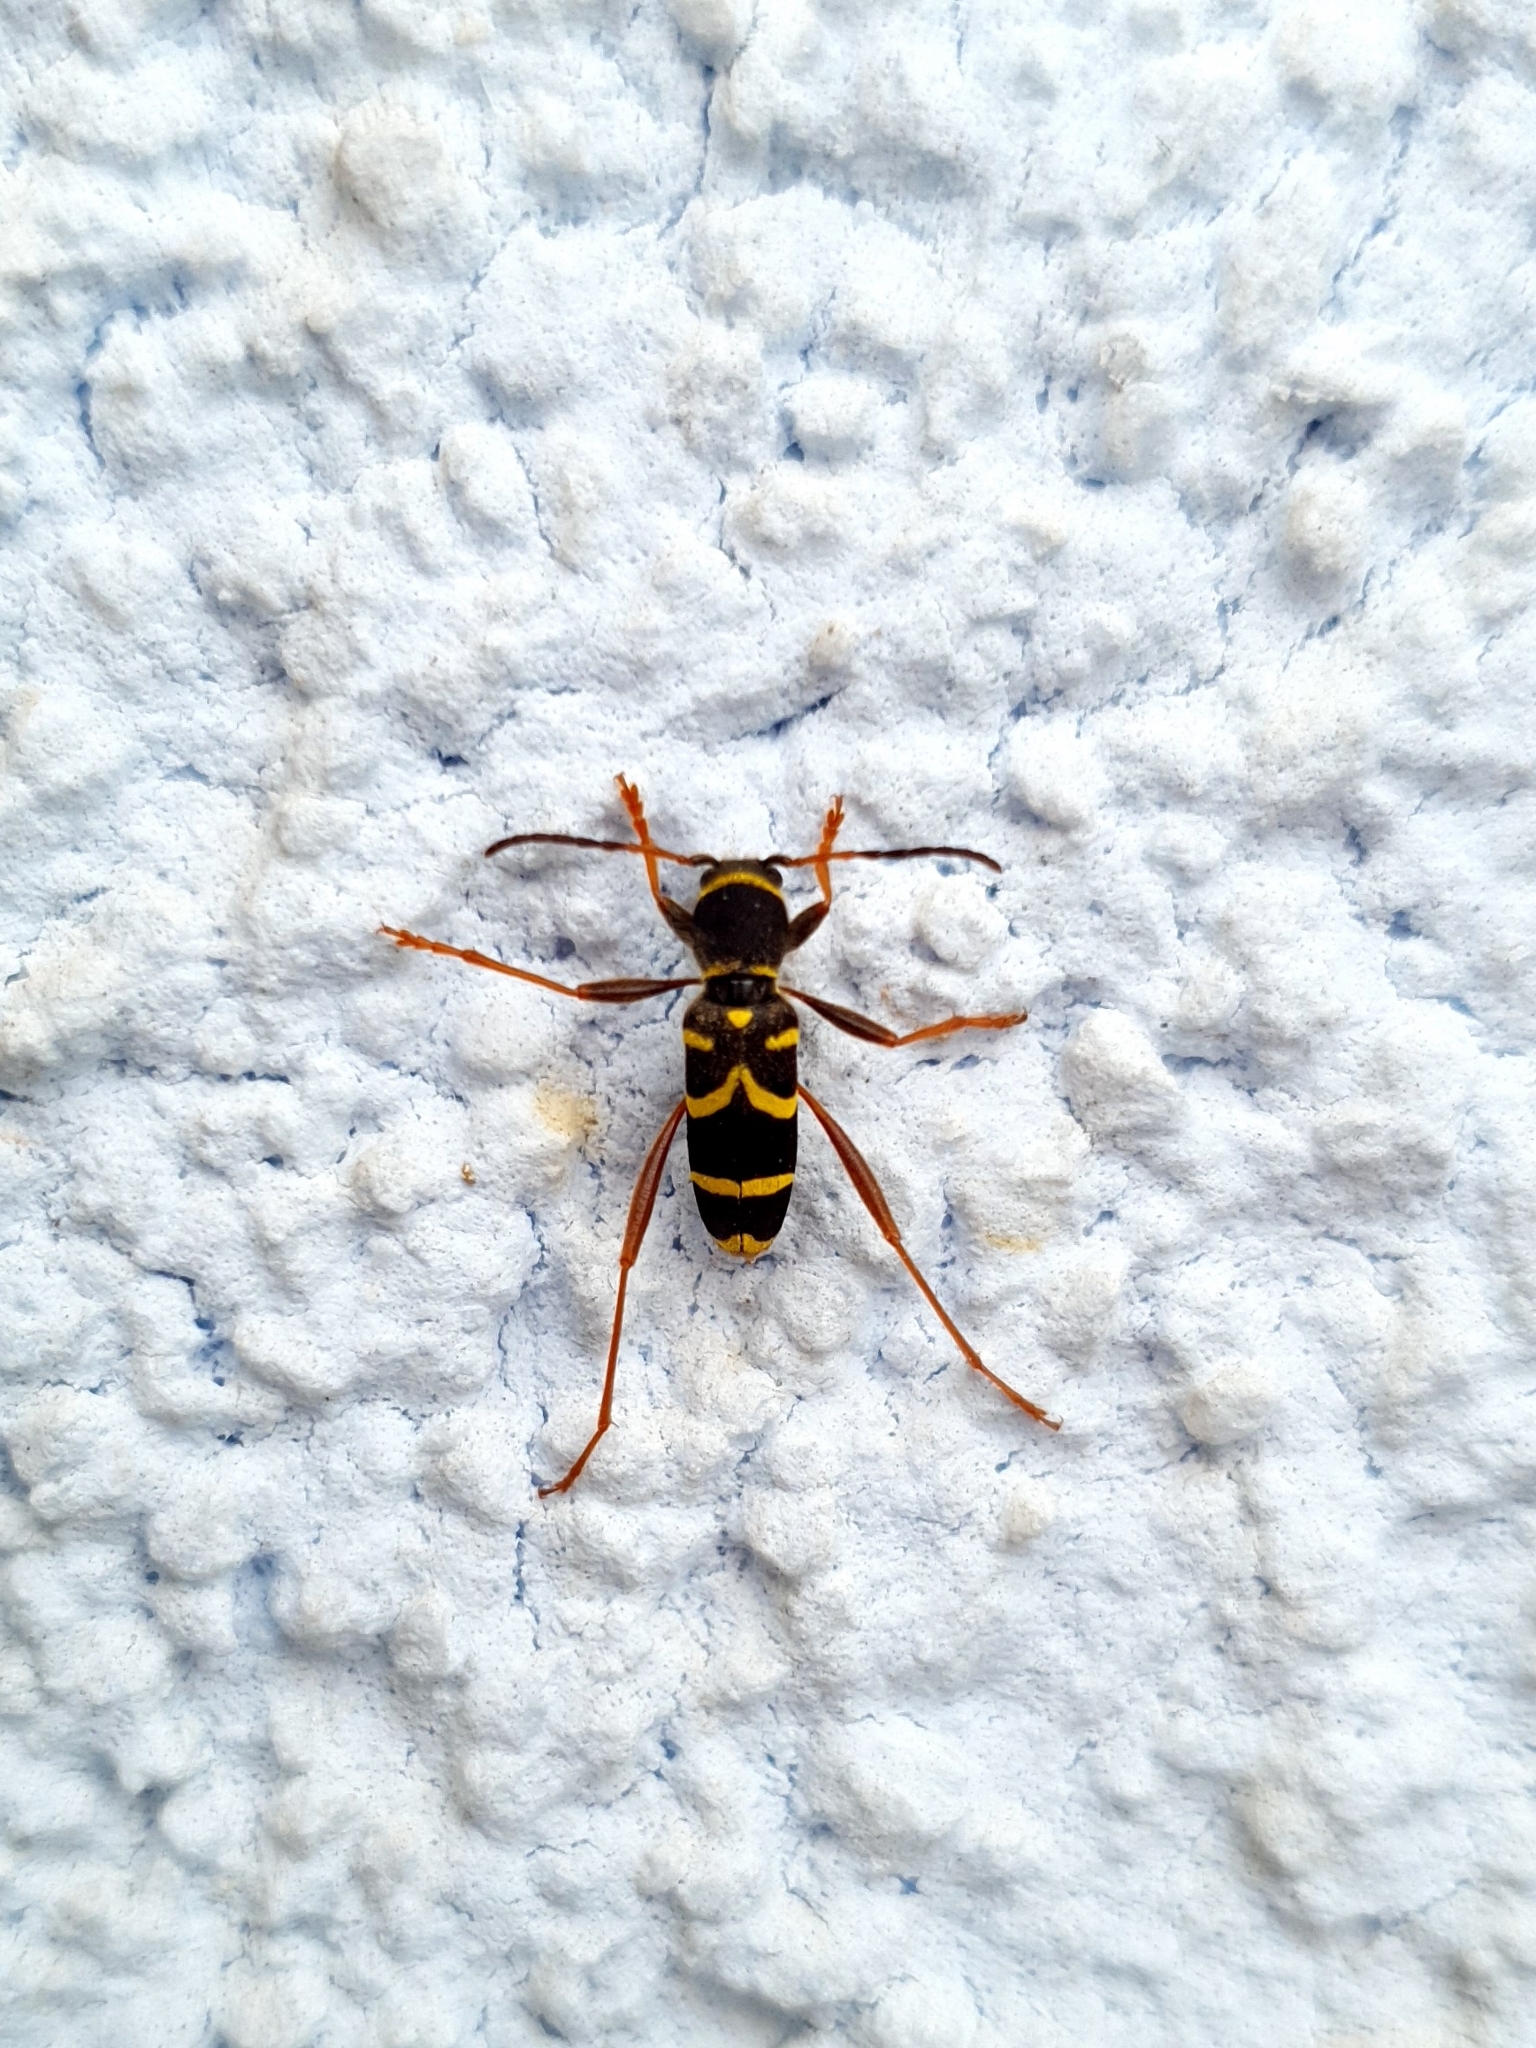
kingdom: Animalia
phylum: Arthropoda
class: Insecta
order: Coleoptera
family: Cerambycidae
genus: Clytus
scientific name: Clytus arietis
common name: Wasp beetle
